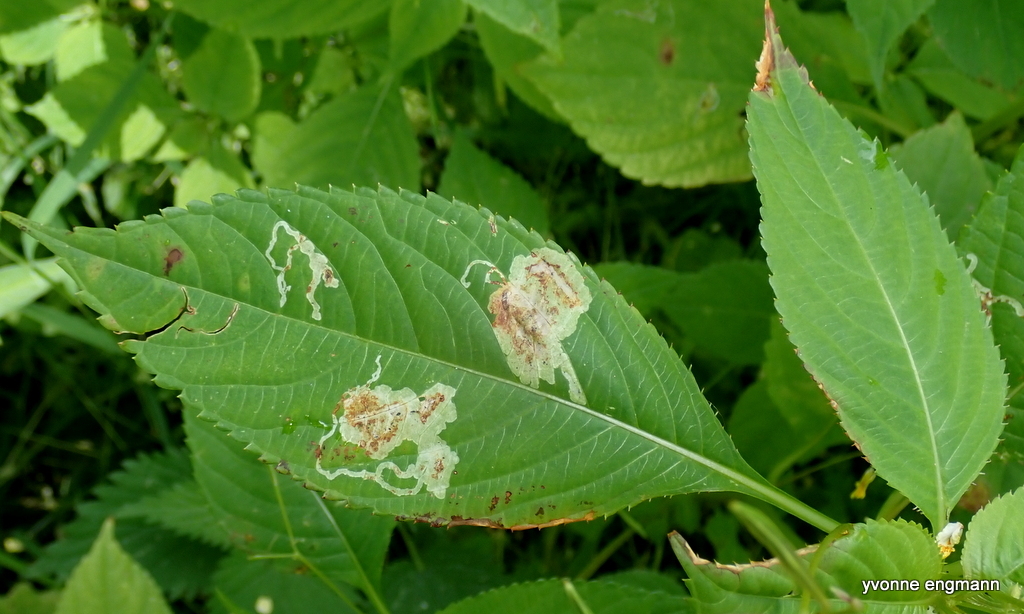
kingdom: Animalia
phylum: Arthropoda
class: Insecta
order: Diptera
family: Agromyzidae
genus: Phytoliriomyza
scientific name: Phytoliriomyza melampyga
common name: Jewelweed leaf-miner fly
